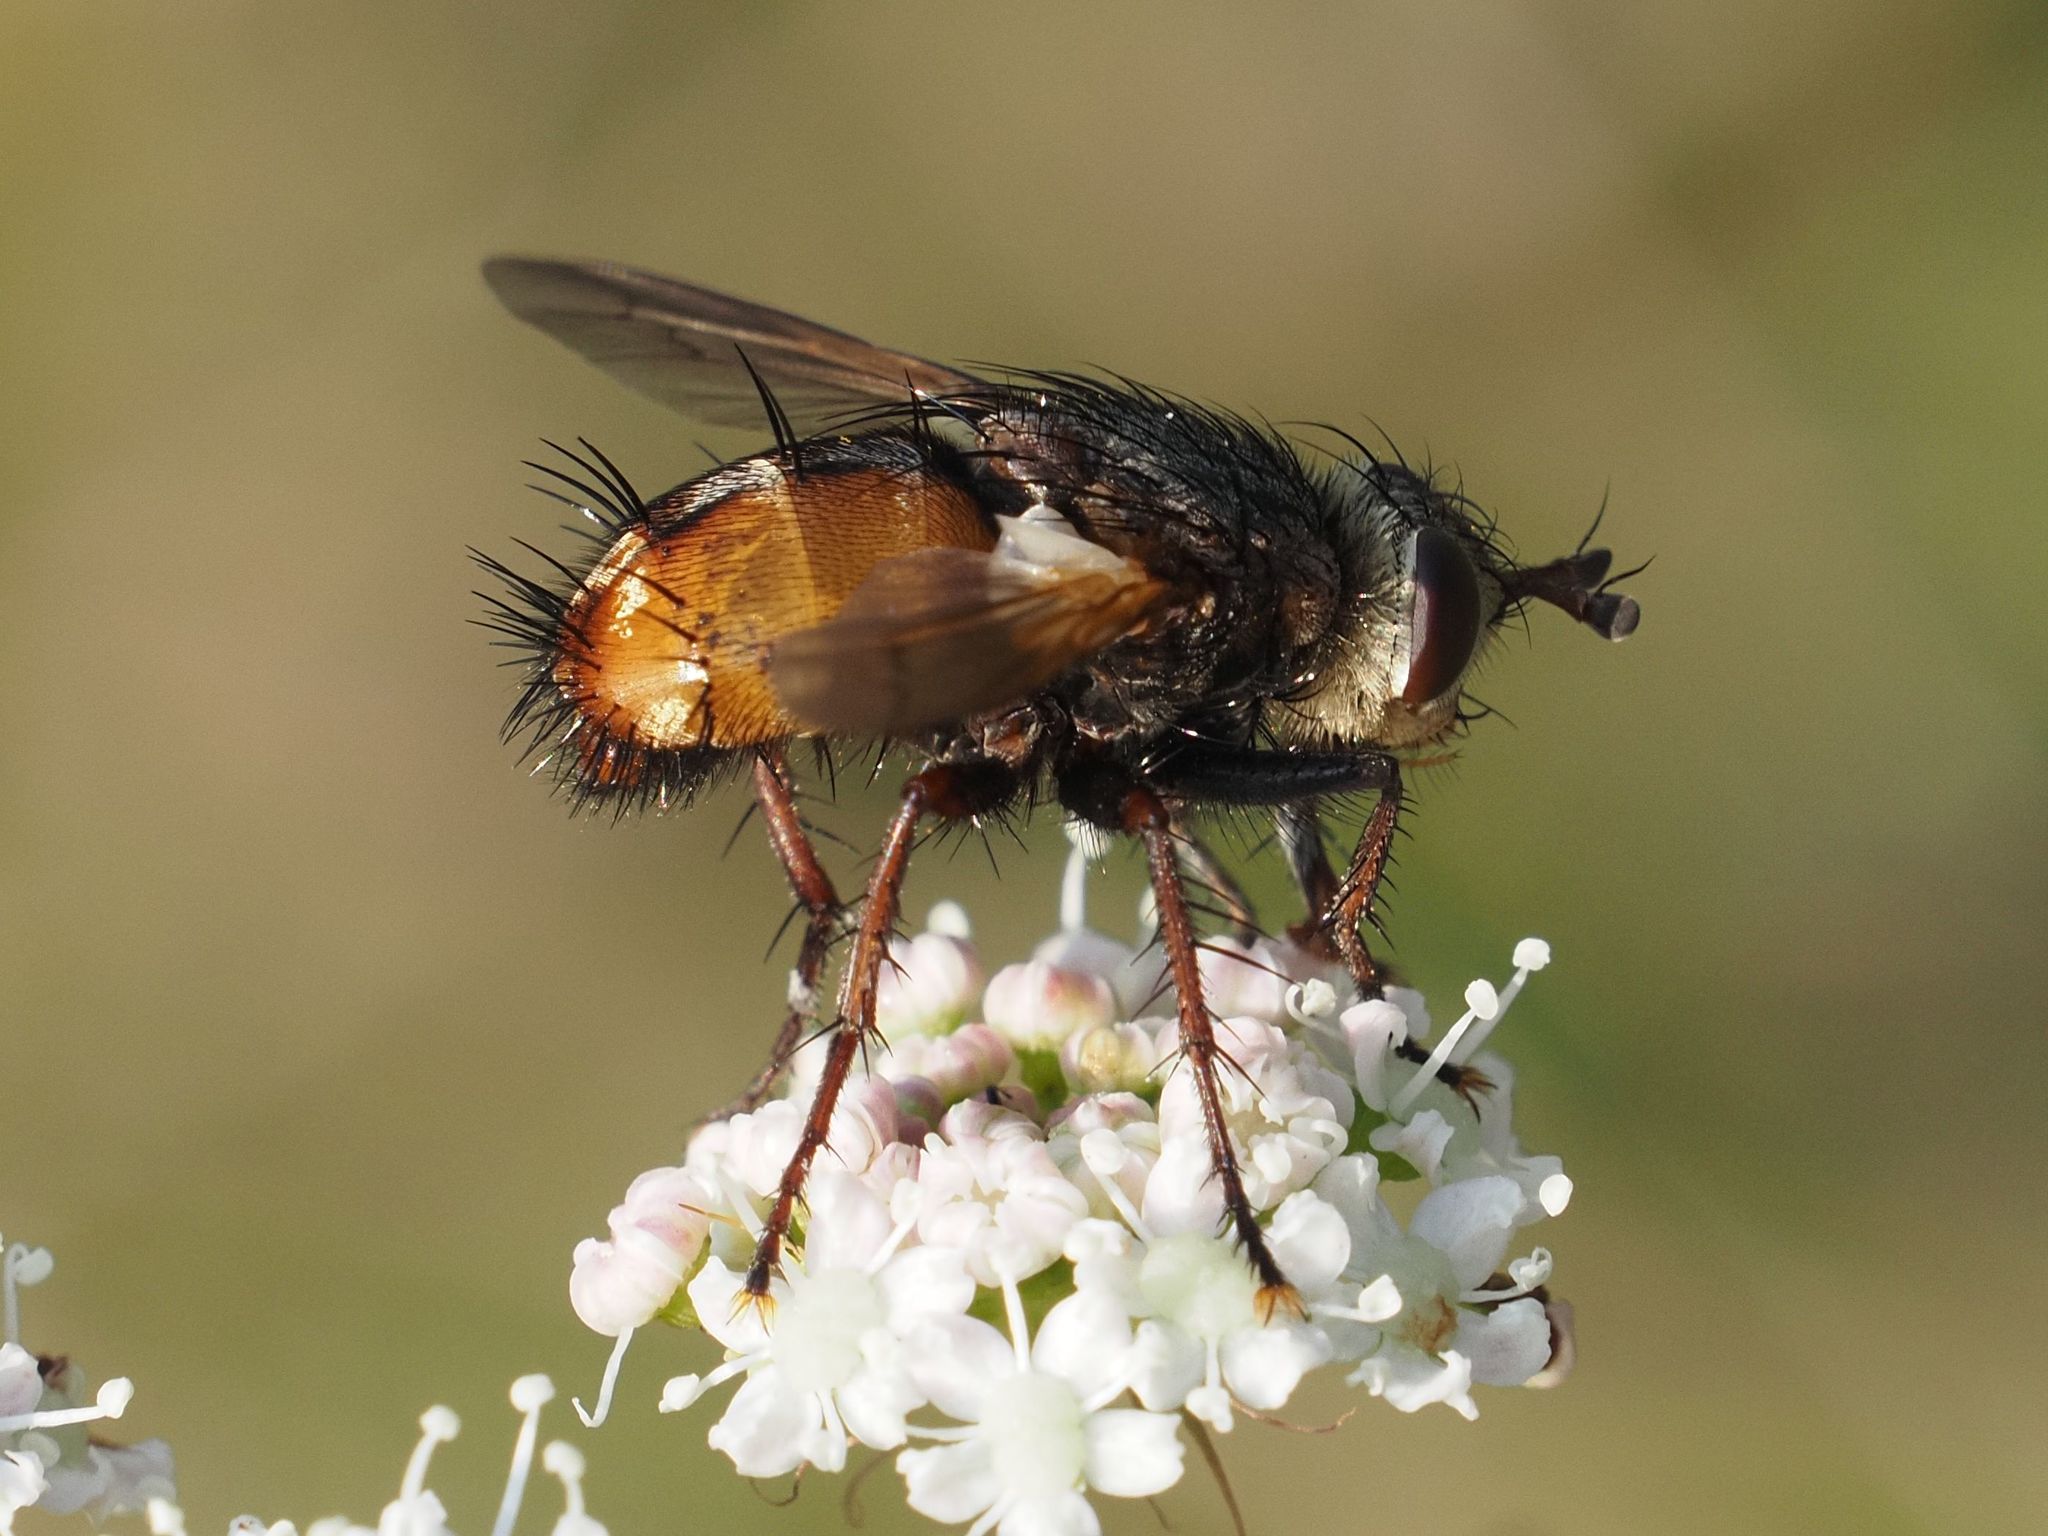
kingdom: Animalia
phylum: Arthropoda
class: Insecta
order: Diptera
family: Tachinidae
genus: Tachina
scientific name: Tachina fera
